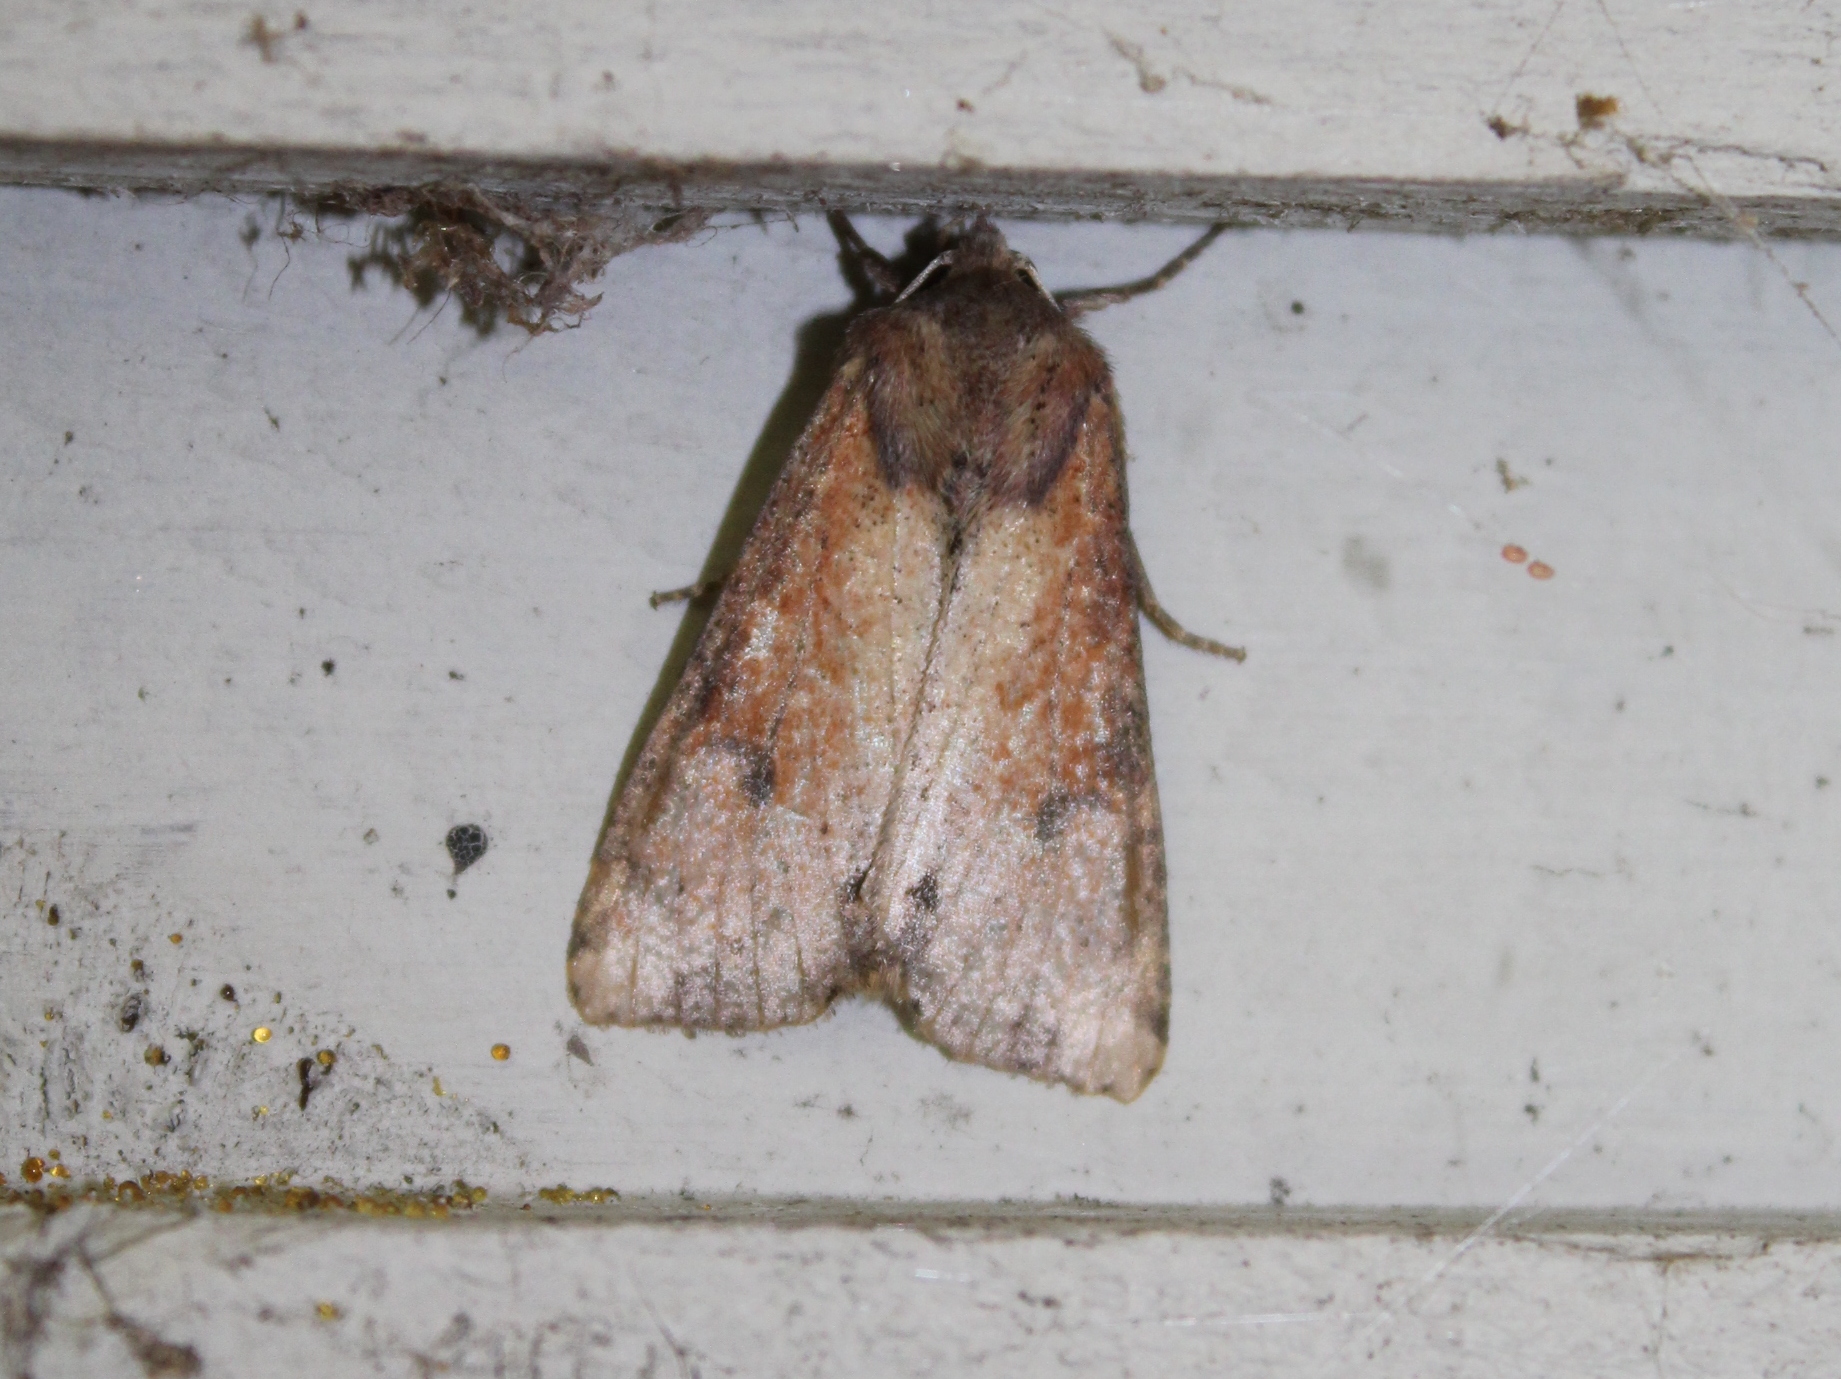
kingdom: Animalia
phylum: Arthropoda
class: Insecta
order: Lepidoptera
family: Noctuidae
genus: Apamea
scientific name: Apamea alia
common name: Fox apamea
